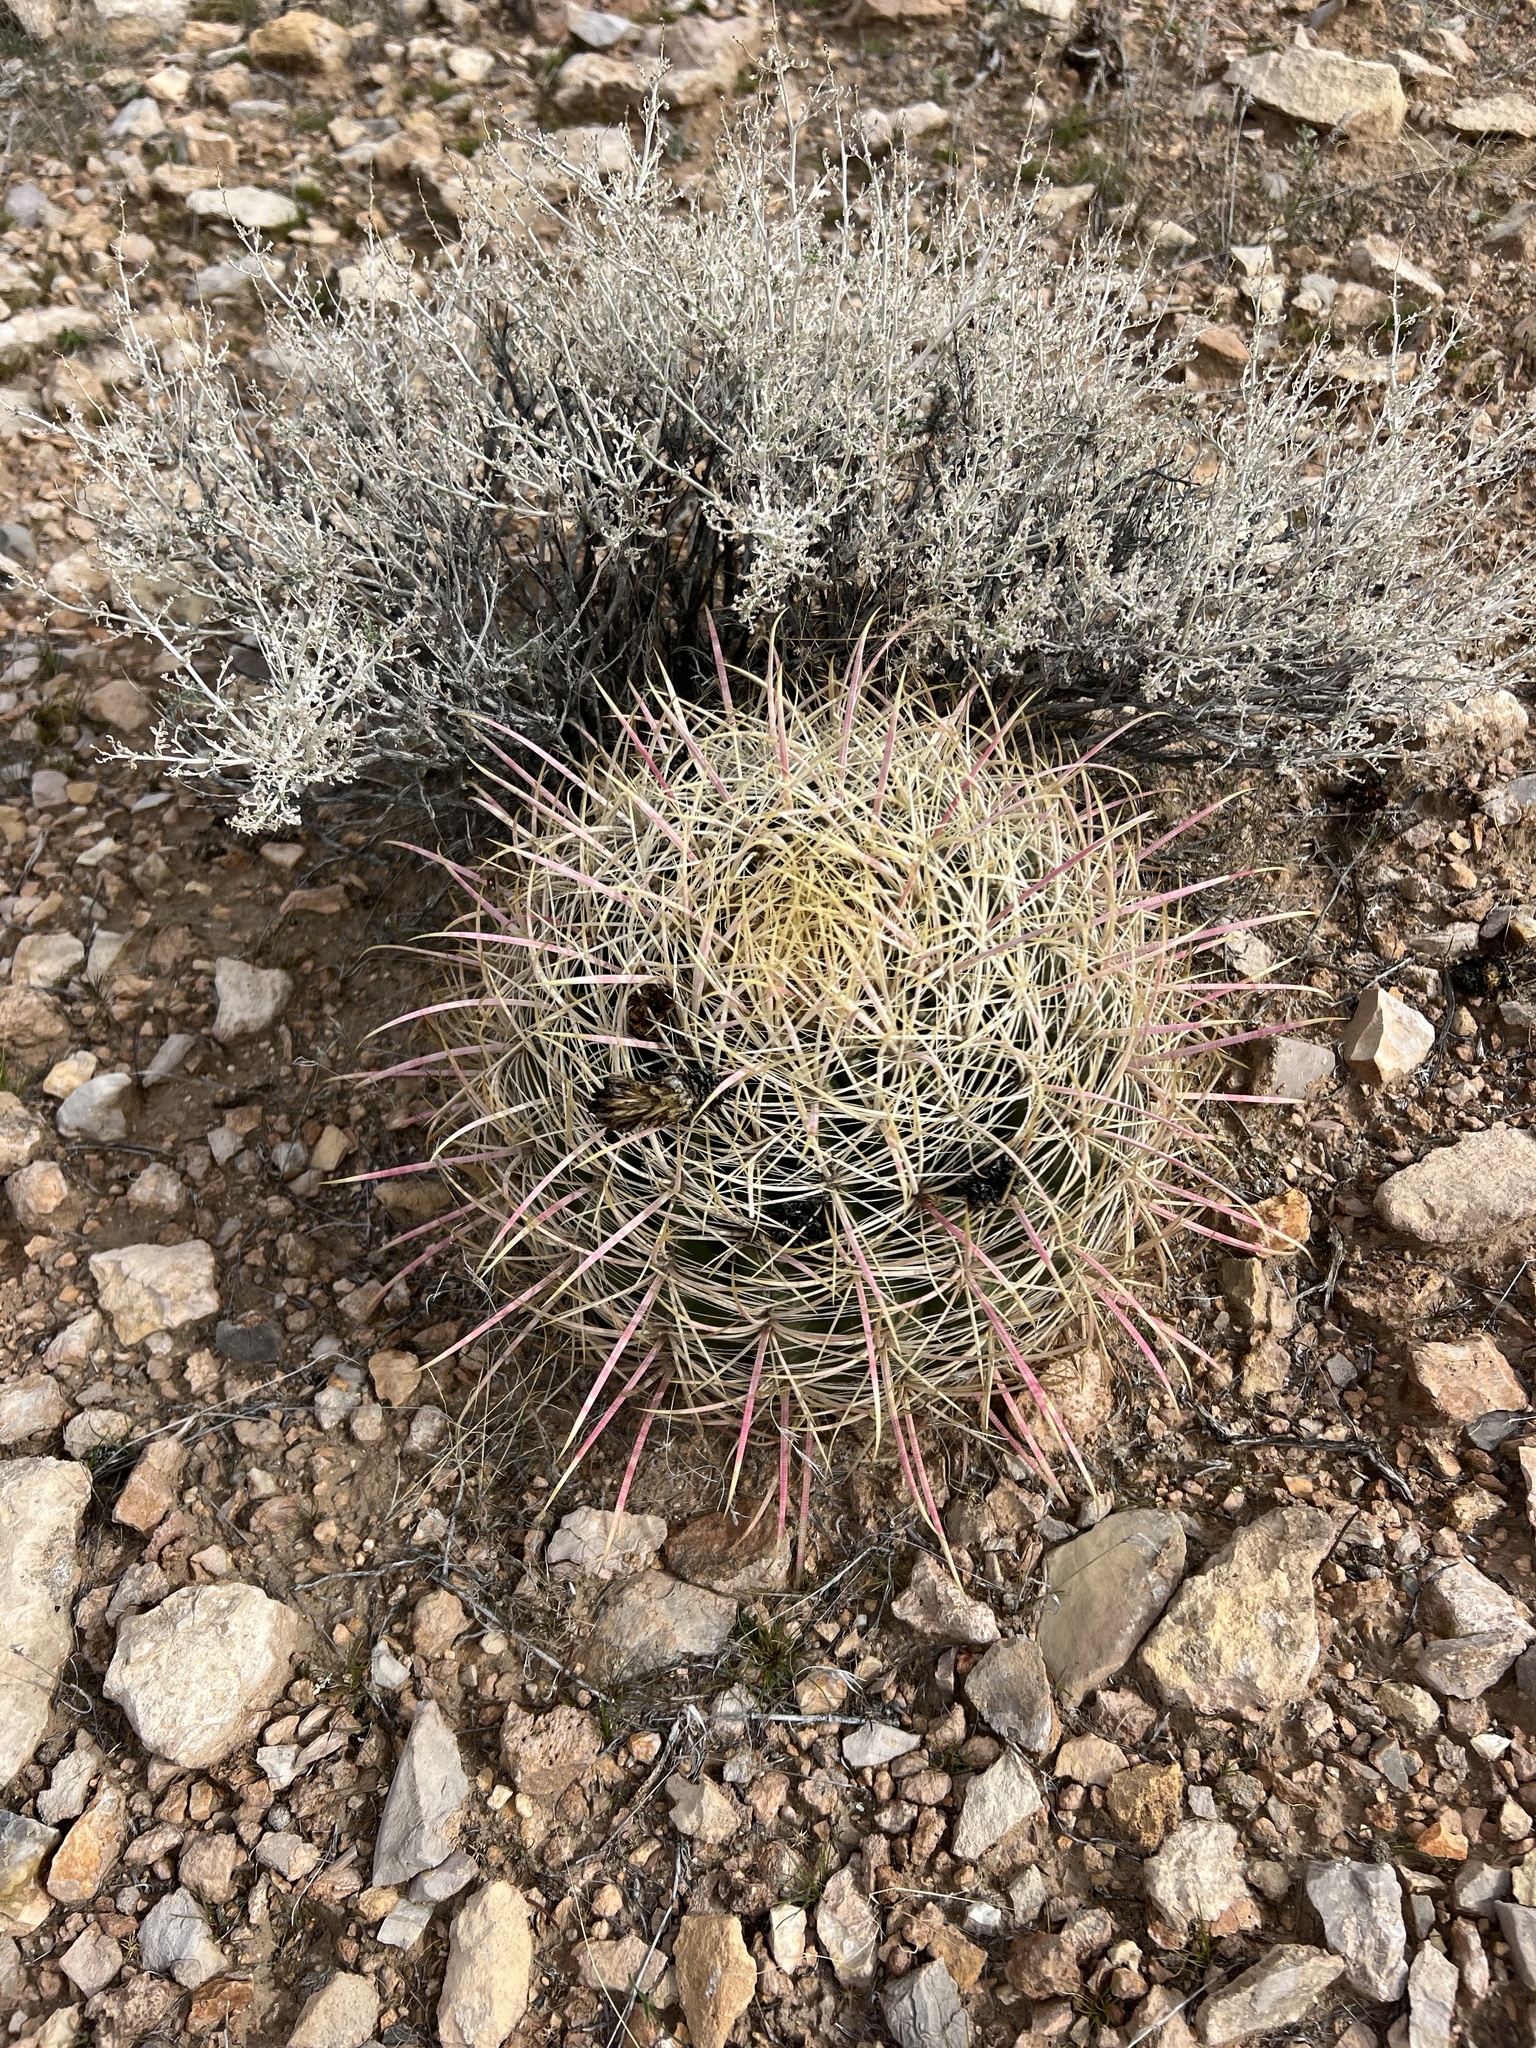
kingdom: Plantae
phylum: Tracheophyta
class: Magnoliopsida
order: Caryophyllales
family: Cactaceae
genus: Ferocactus
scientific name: Ferocactus cylindraceus
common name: California barrel cactus
